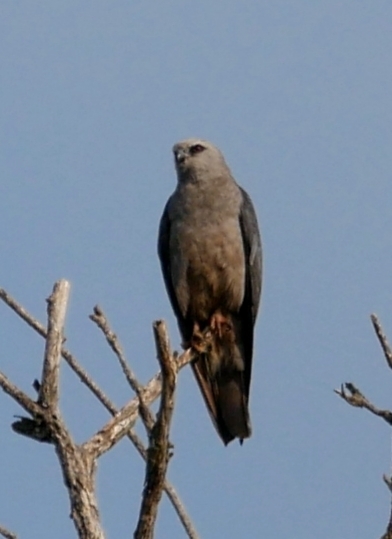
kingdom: Animalia
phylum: Chordata
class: Aves
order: Accipitriformes
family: Accipitridae
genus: Ictinia
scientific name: Ictinia mississippiensis
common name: Mississippi kite
